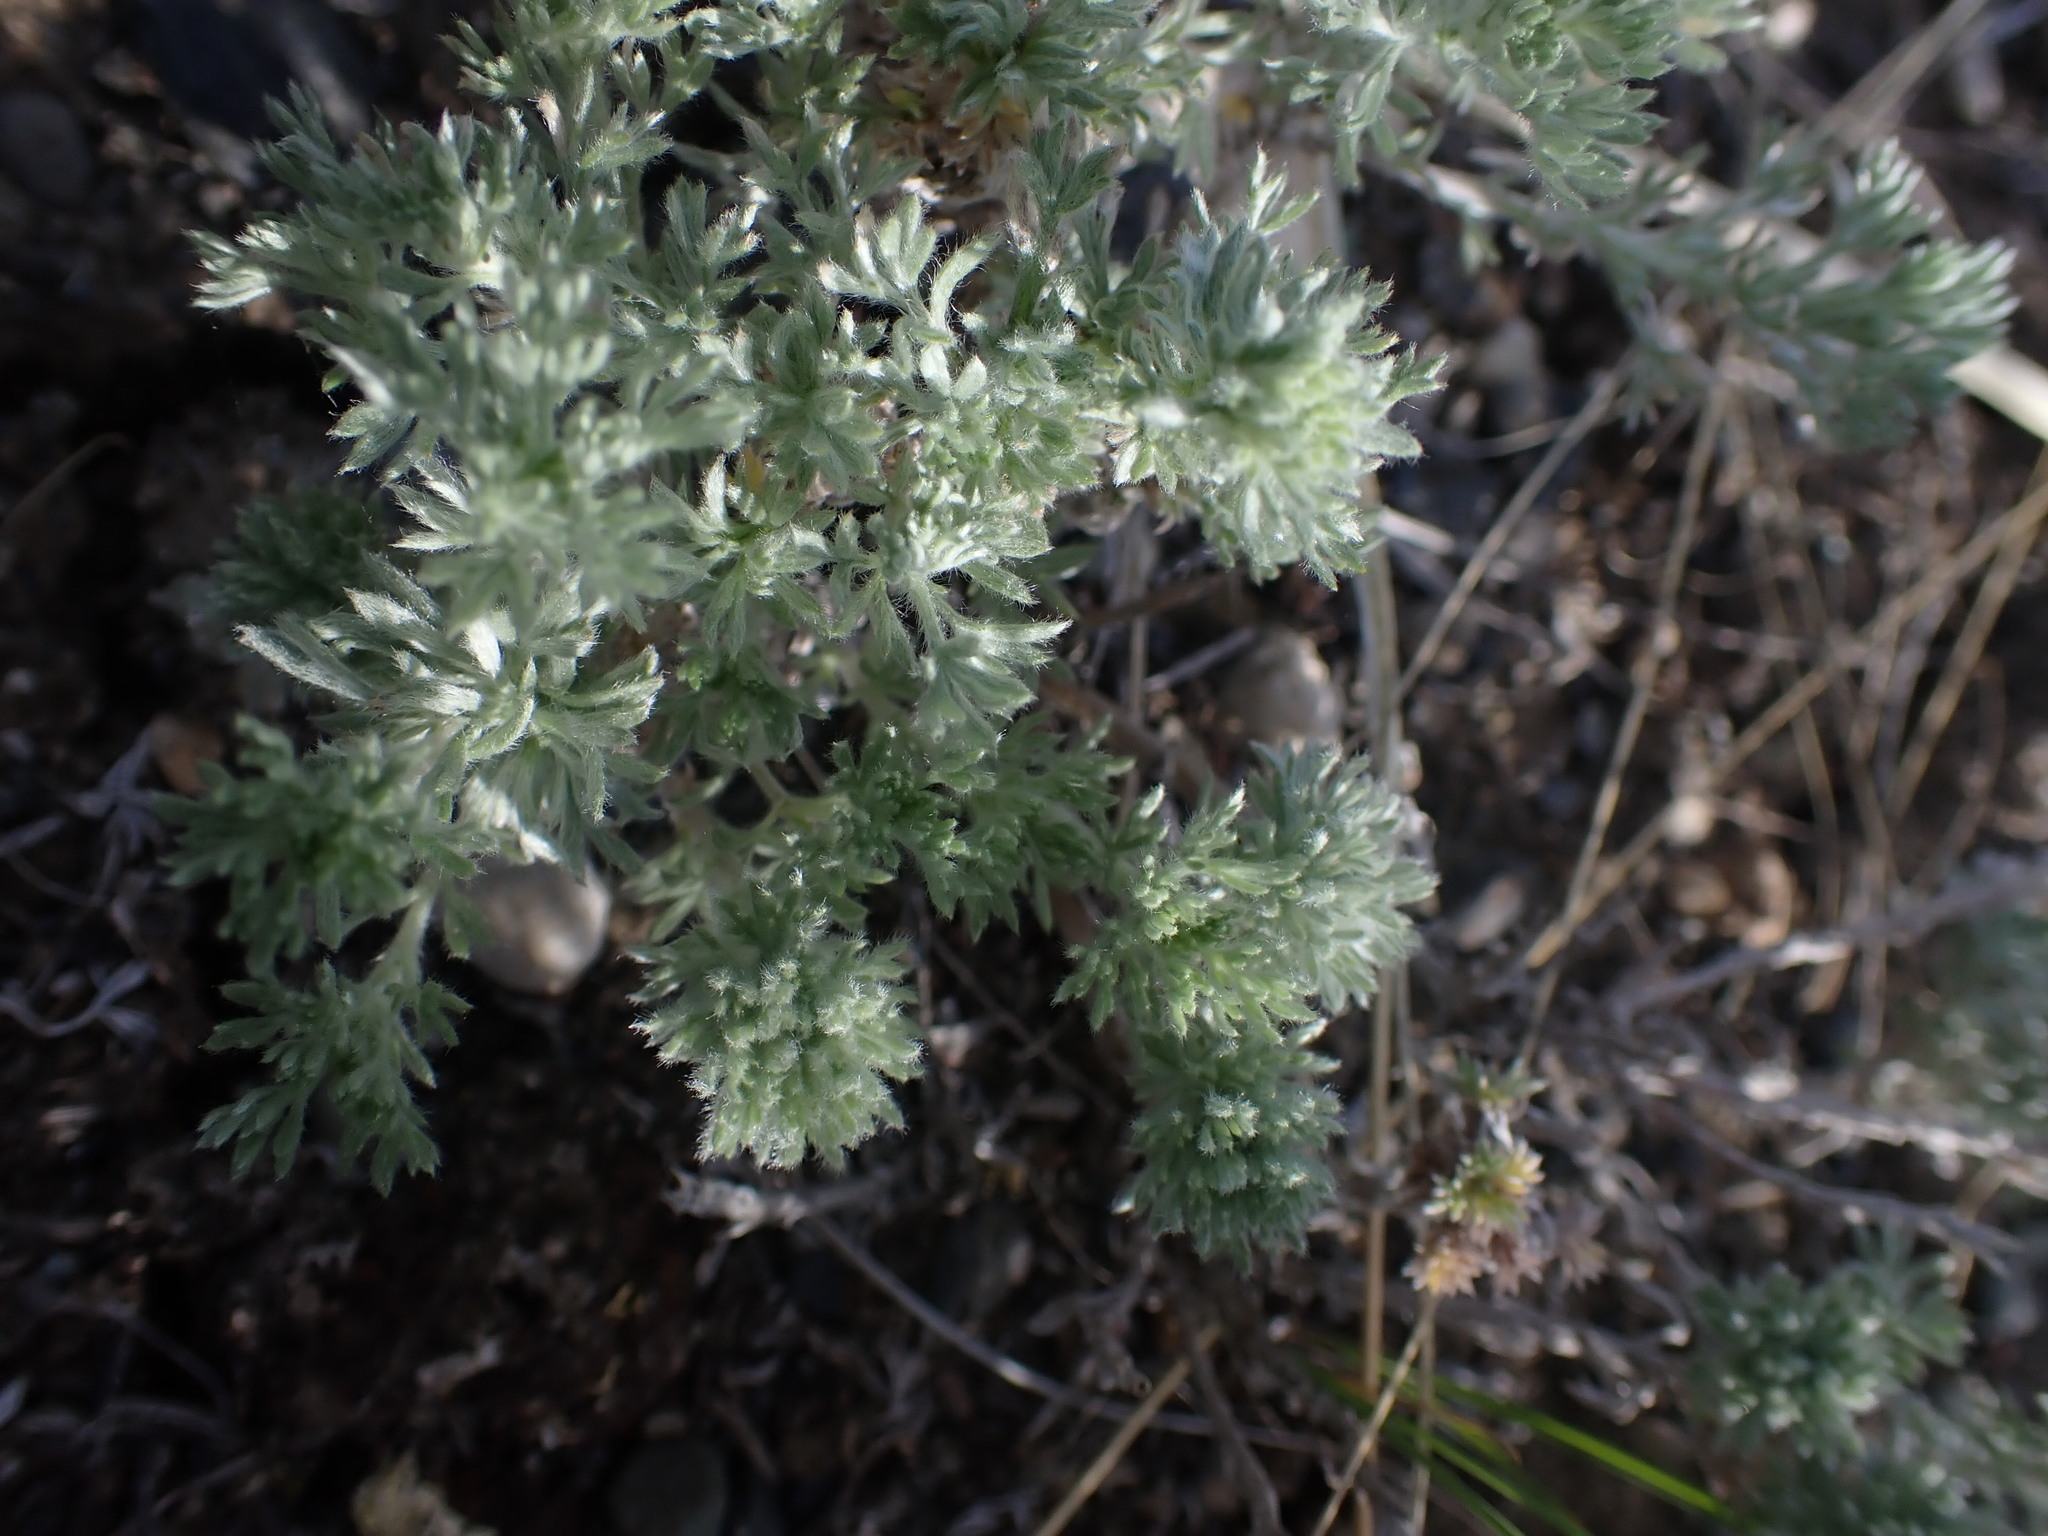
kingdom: Plantae
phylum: Tracheophyta
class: Magnoliopsida
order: Asterales
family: Asteraceae
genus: Artemisia
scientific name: Artemisia frigida
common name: Prairie sagewort
